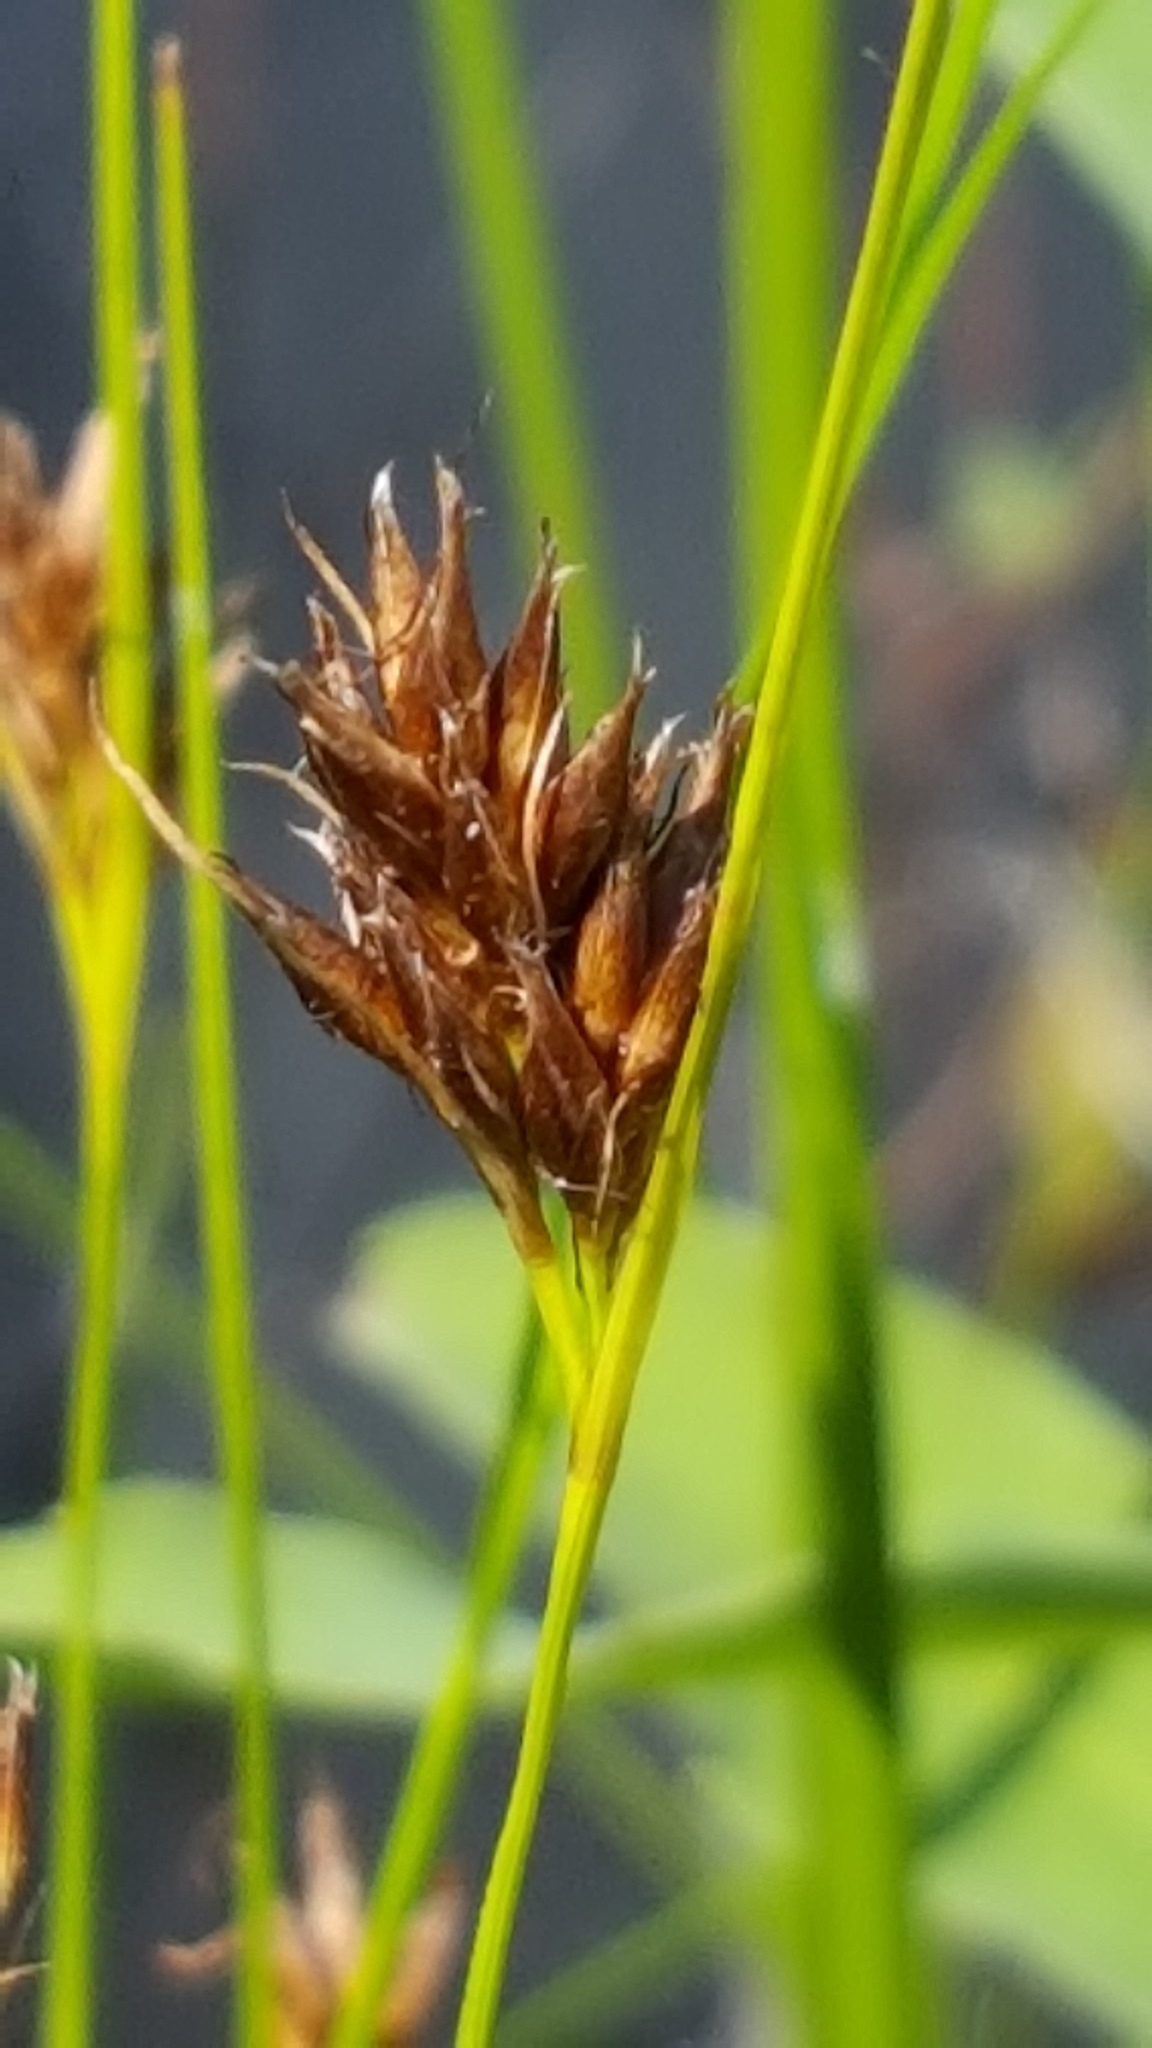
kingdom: Plantae
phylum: Tracheophyta
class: Liliopsida
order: Poales
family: Cyperaceae
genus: Rhynchospora
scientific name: Rhynchospora fusca
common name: Brown beak-sedge
